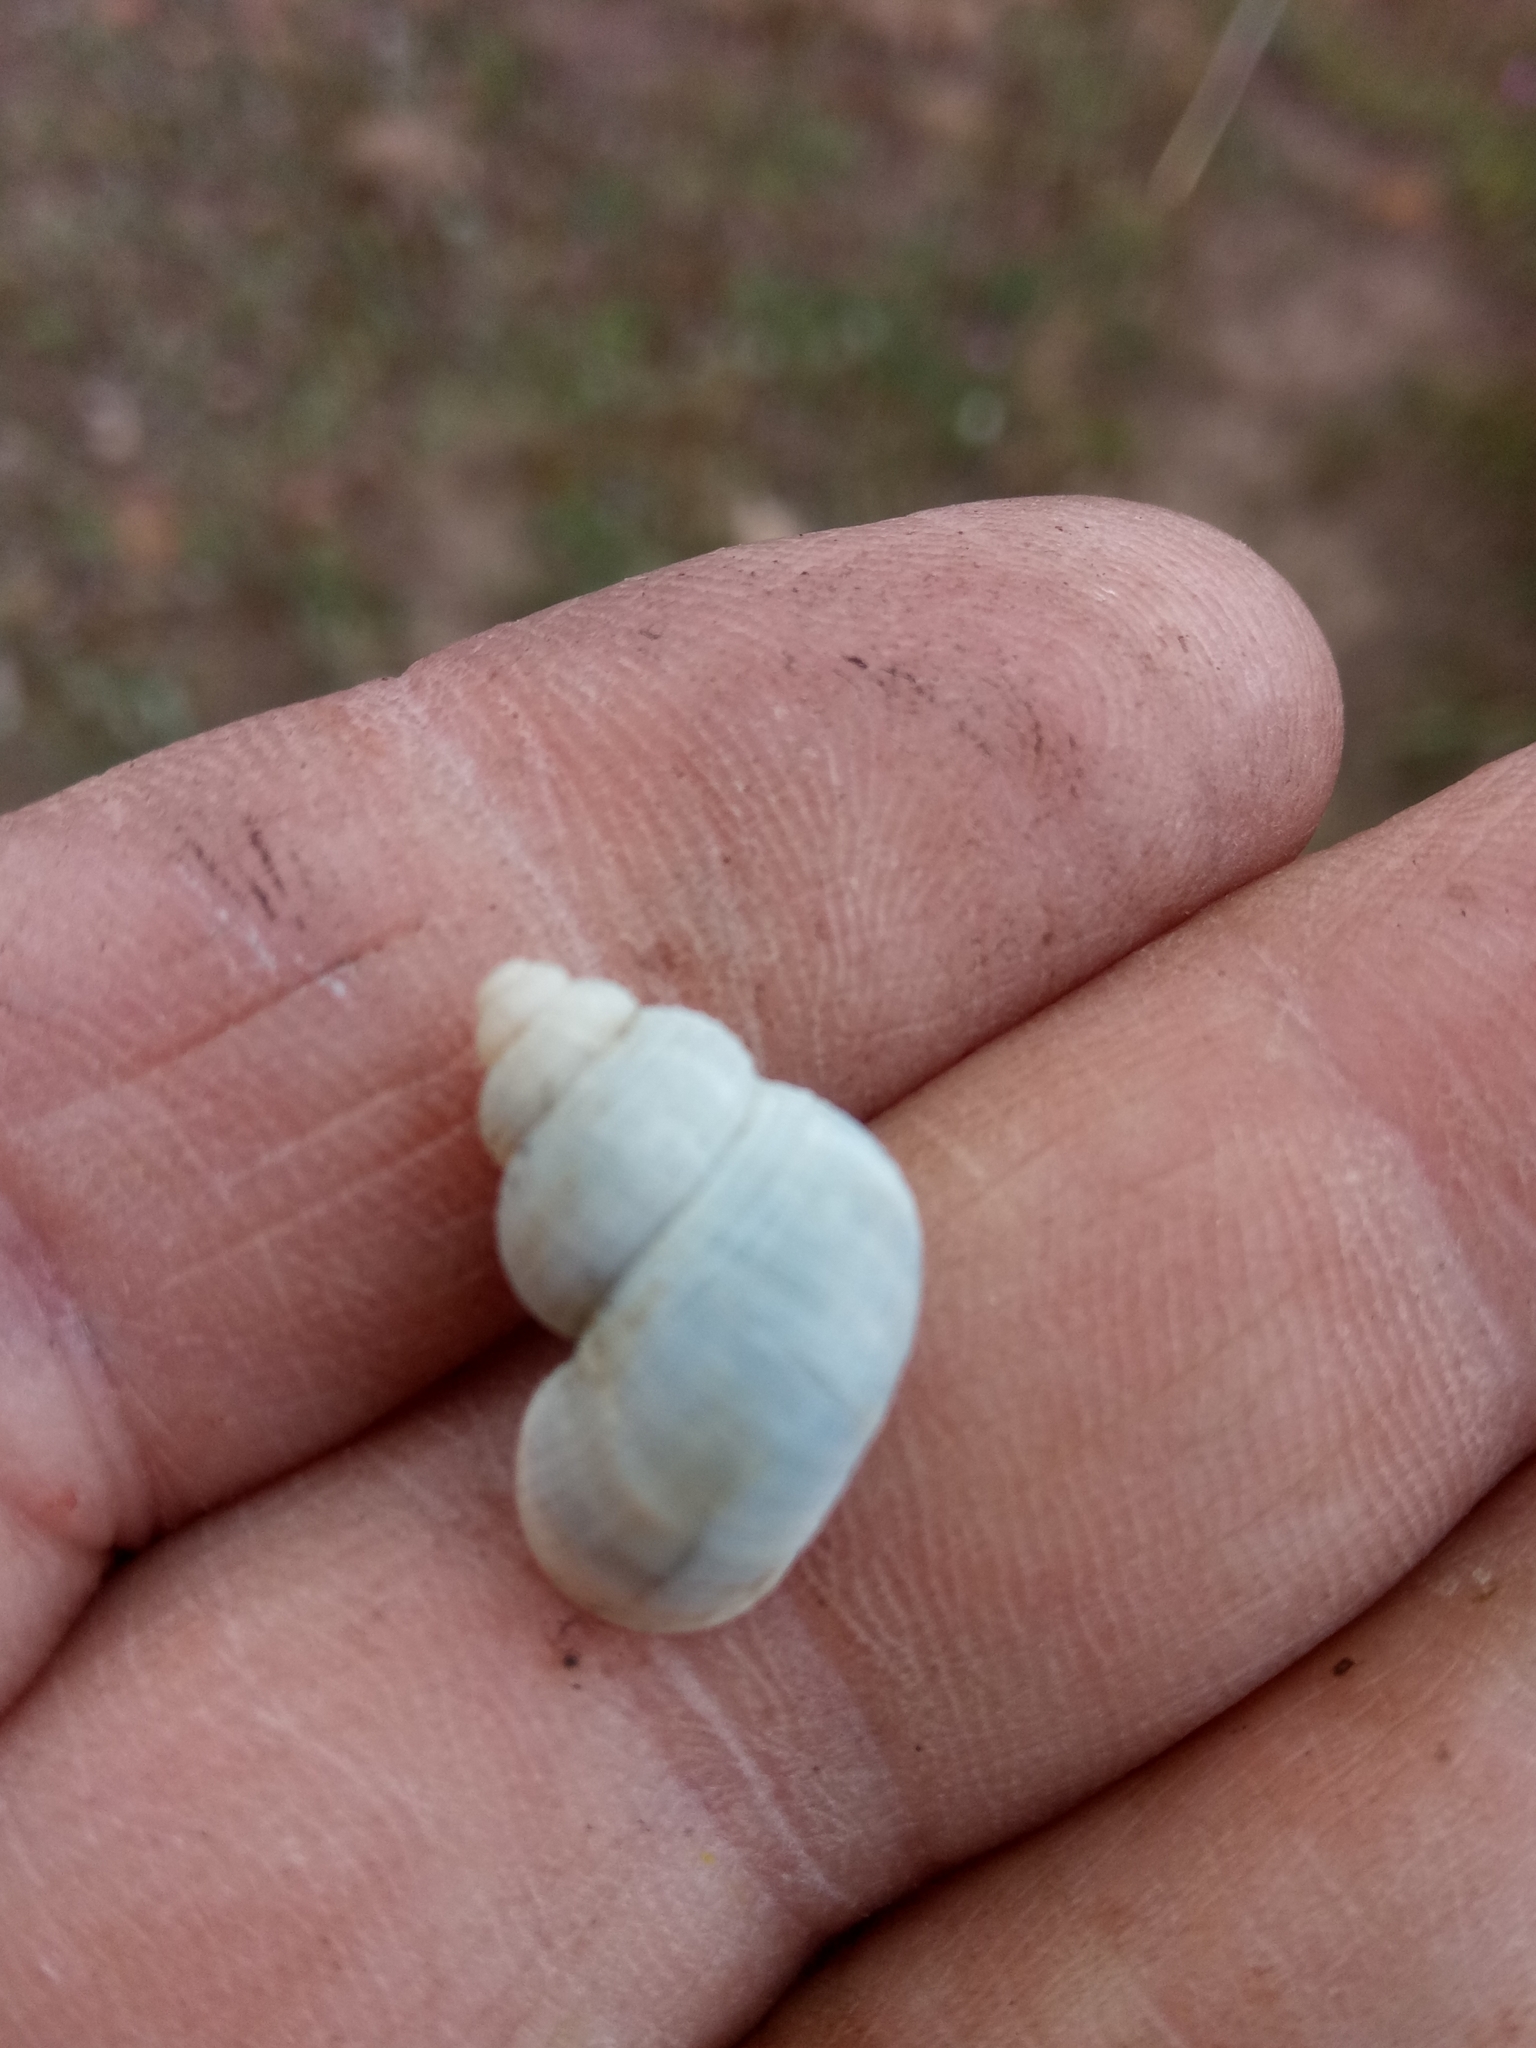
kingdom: Animalia
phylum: Mollusca
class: Gastropoda
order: Littorinimorpha
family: Pomatiidae
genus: Tudorella
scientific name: Tudorella sulcata
